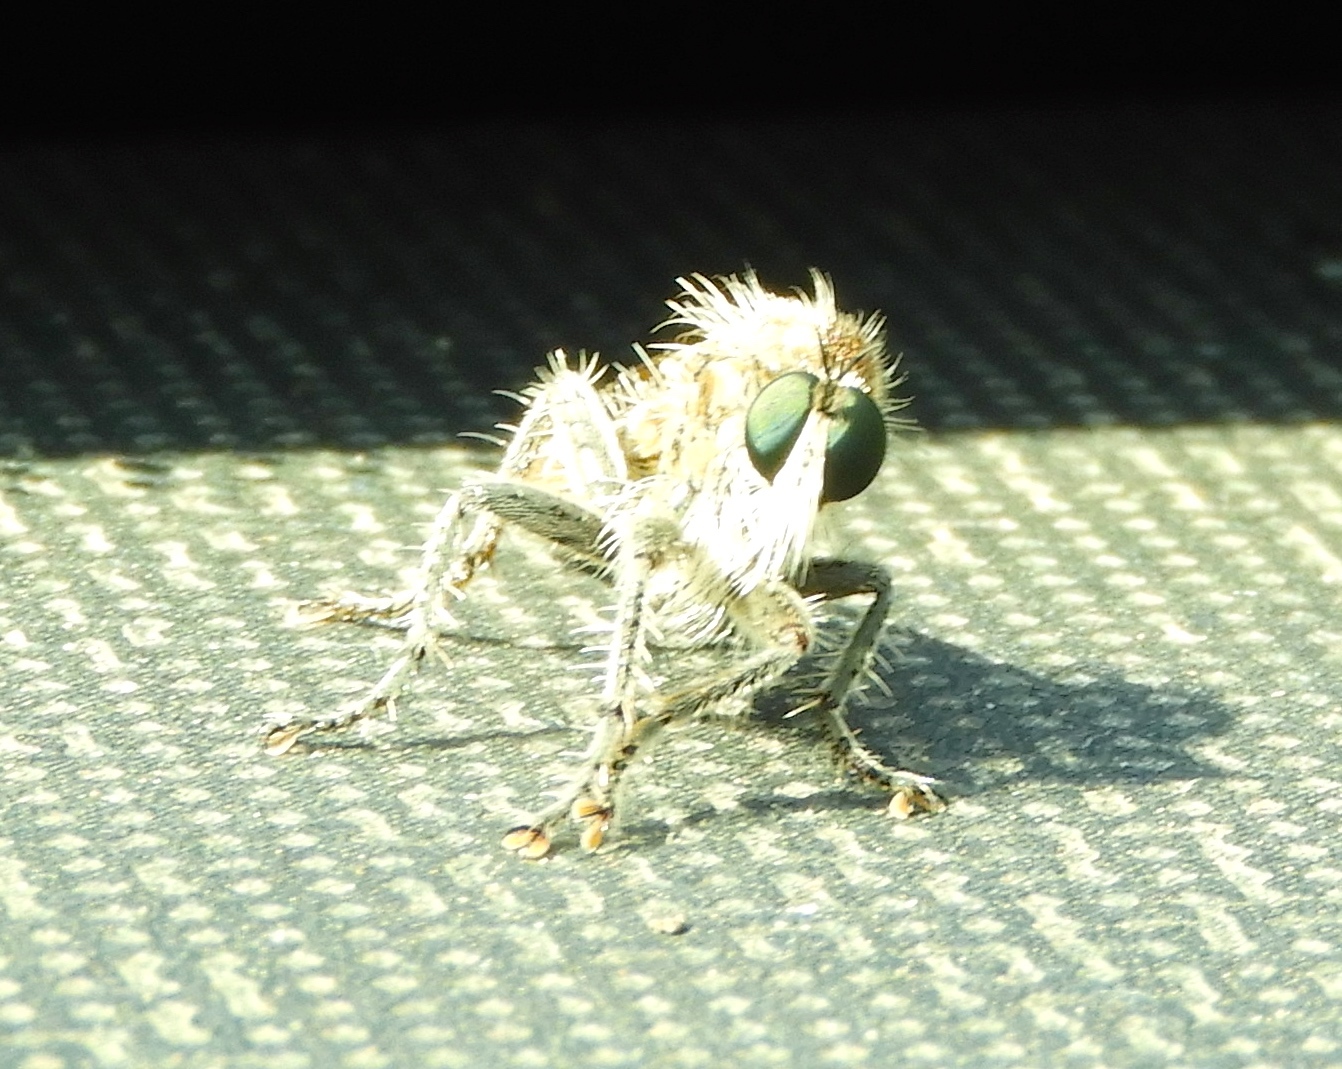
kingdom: Animalia
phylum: Arthropoda
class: Insecta
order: Diptera
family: Asilidae
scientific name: Asilidae
